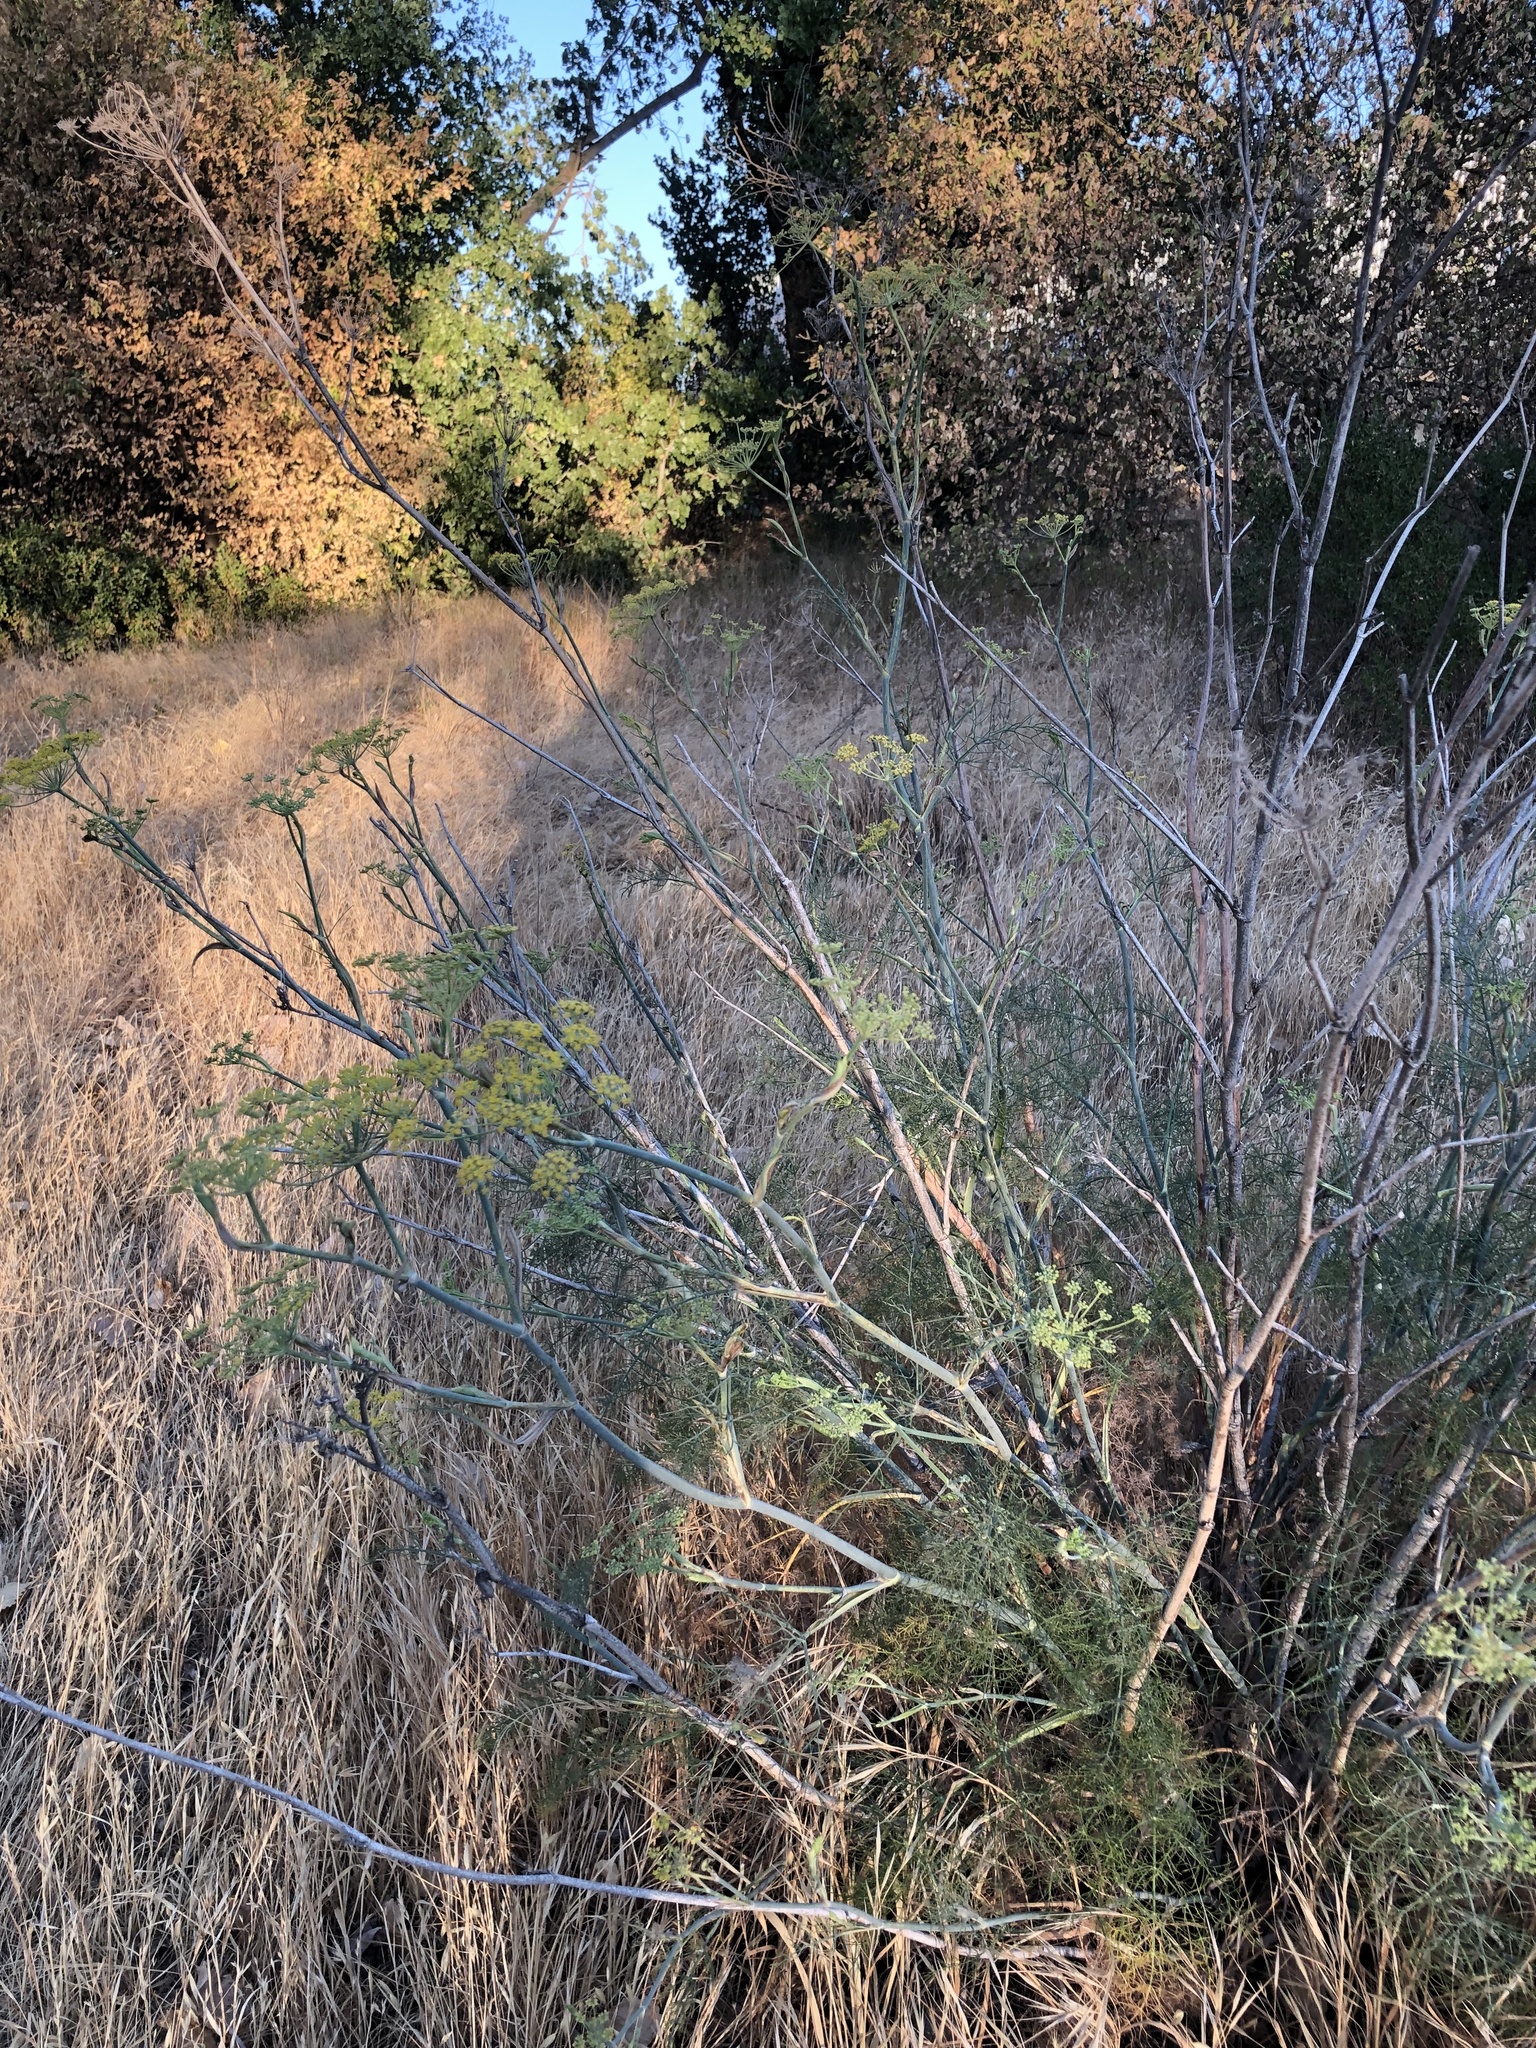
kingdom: Plantae
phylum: Tracheophyta
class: Magnoliopsida
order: Apiales
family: Apiaceae
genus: Foeniculum
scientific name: Foeniculum vulgare
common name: Fennel
